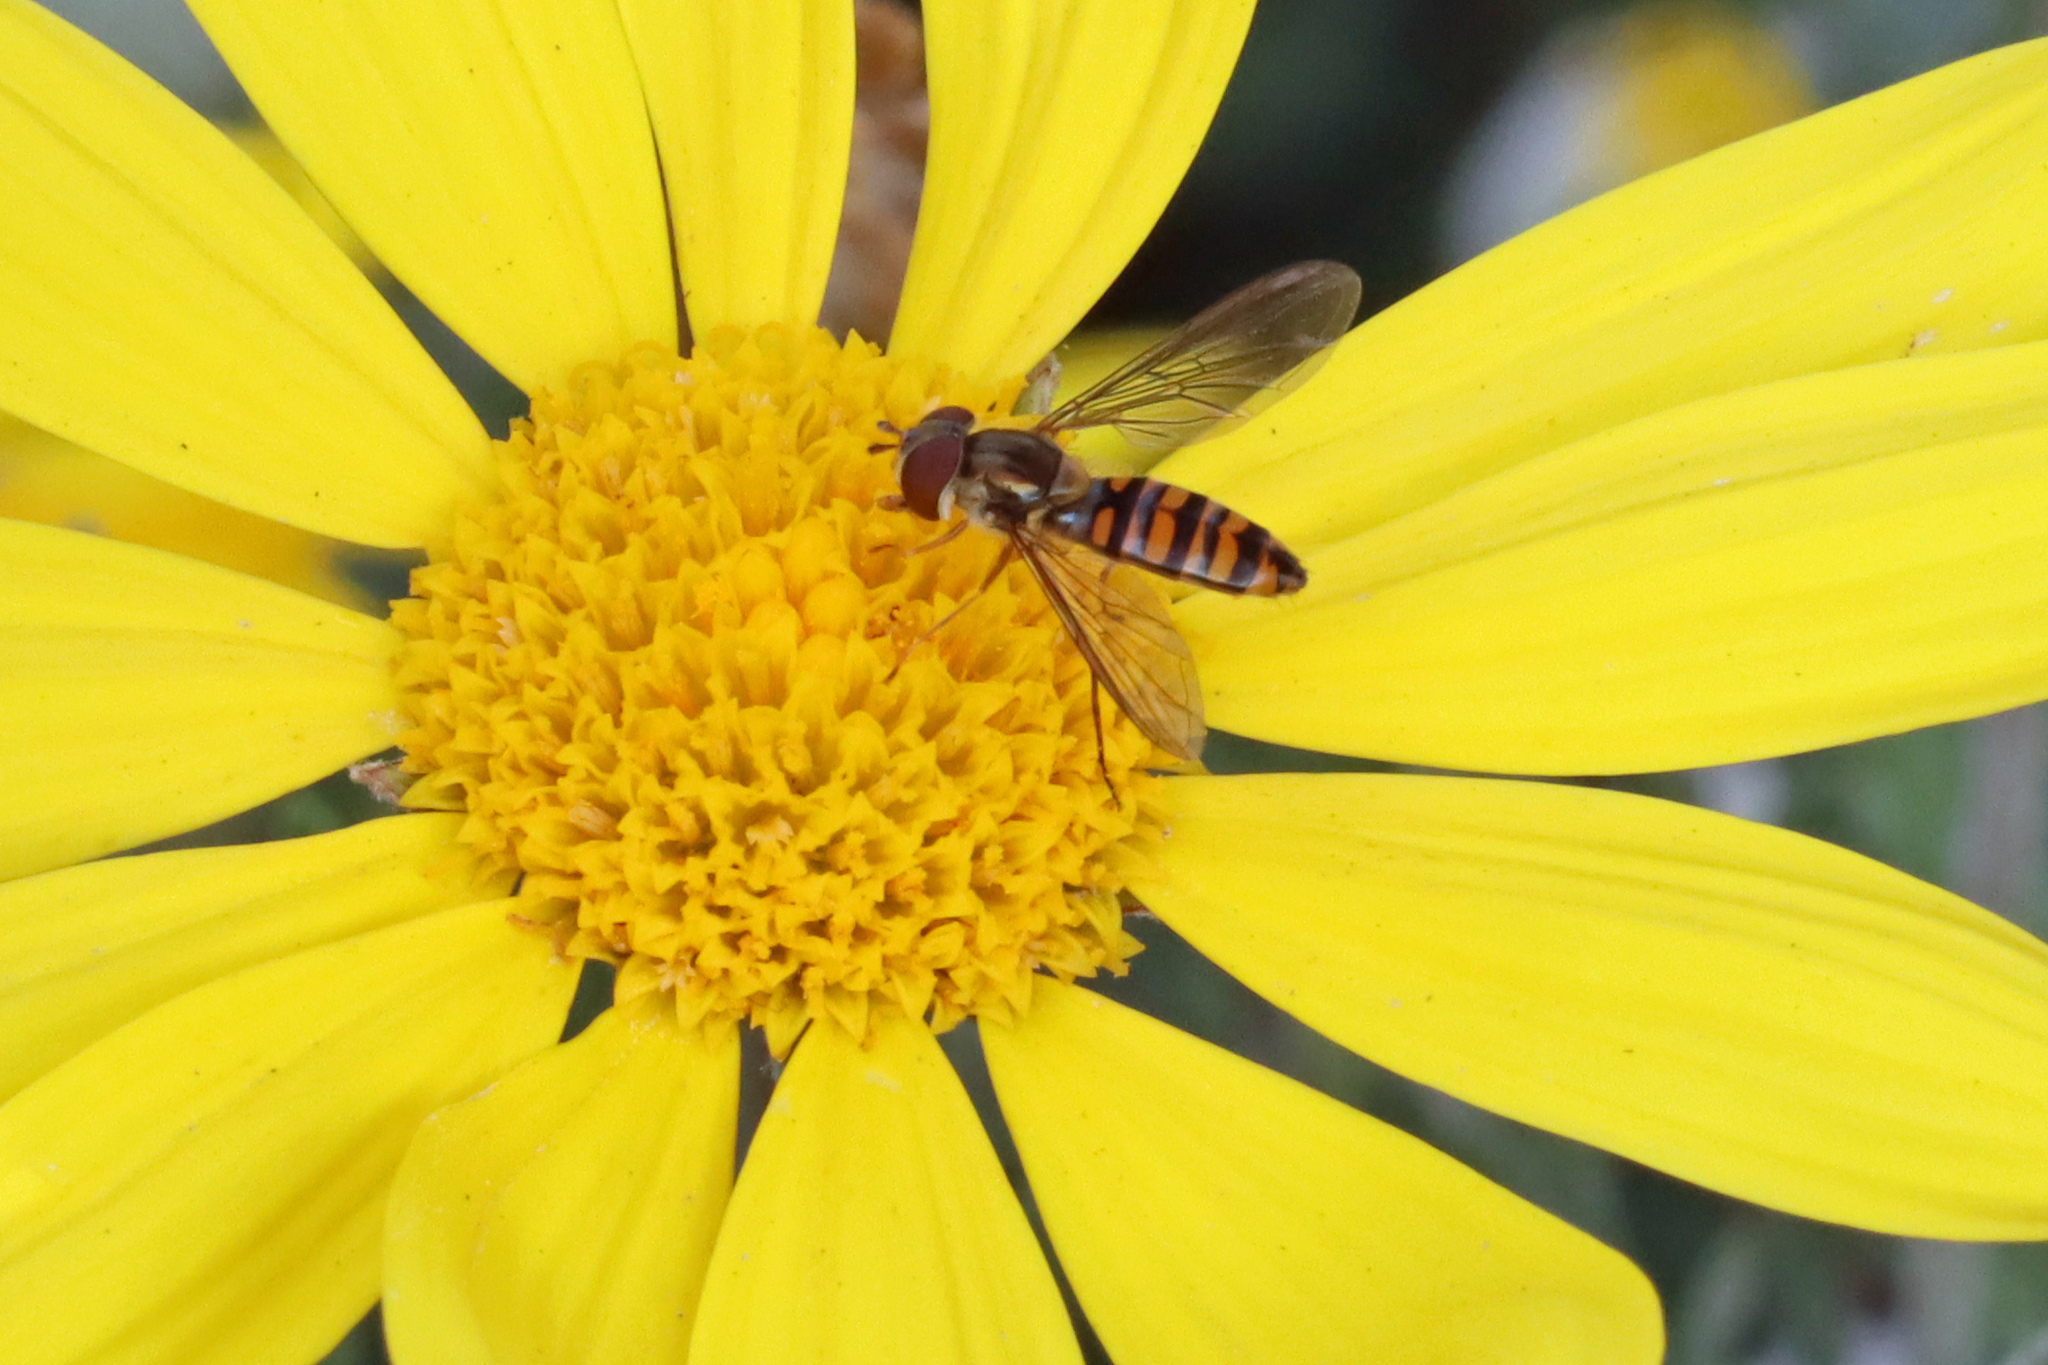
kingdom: Animalia
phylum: Arthropoda
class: Insecta
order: Diptera
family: Syrphidae
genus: Episyrphus
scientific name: Episyrphus balteatus
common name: Marmalade hoverfly
